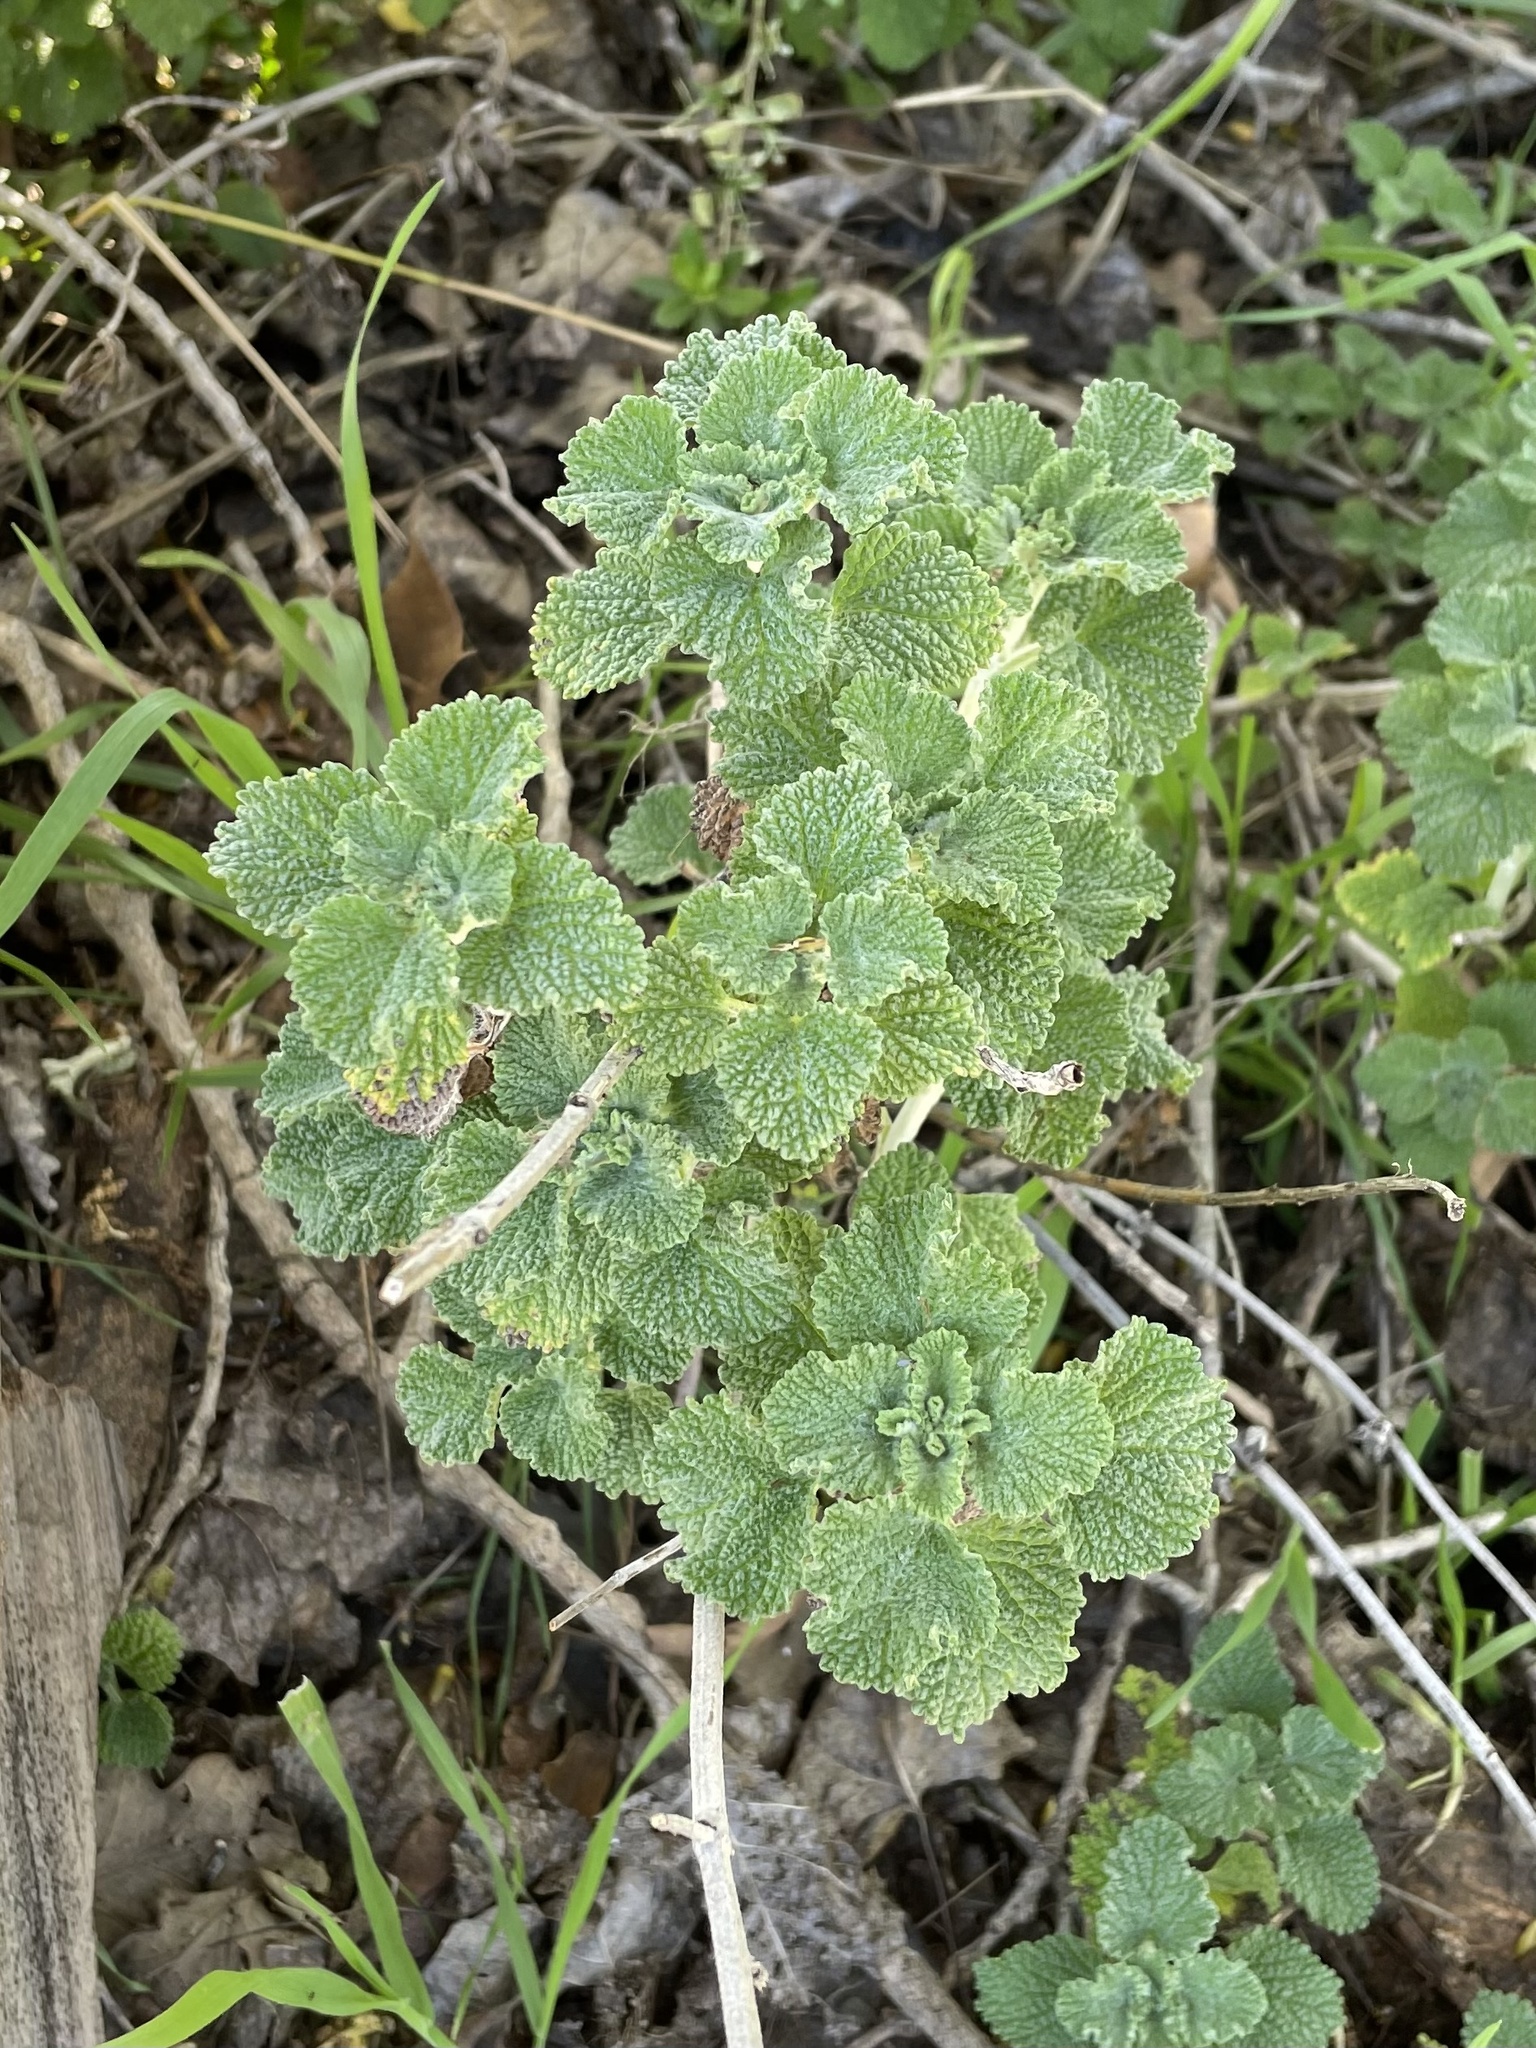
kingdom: Plantae
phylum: Tracheophyta
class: Magnoliopsida
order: Lamiales
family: Lamiaceae
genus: Marrubium
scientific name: Marrubium vulgare
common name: Horehound
